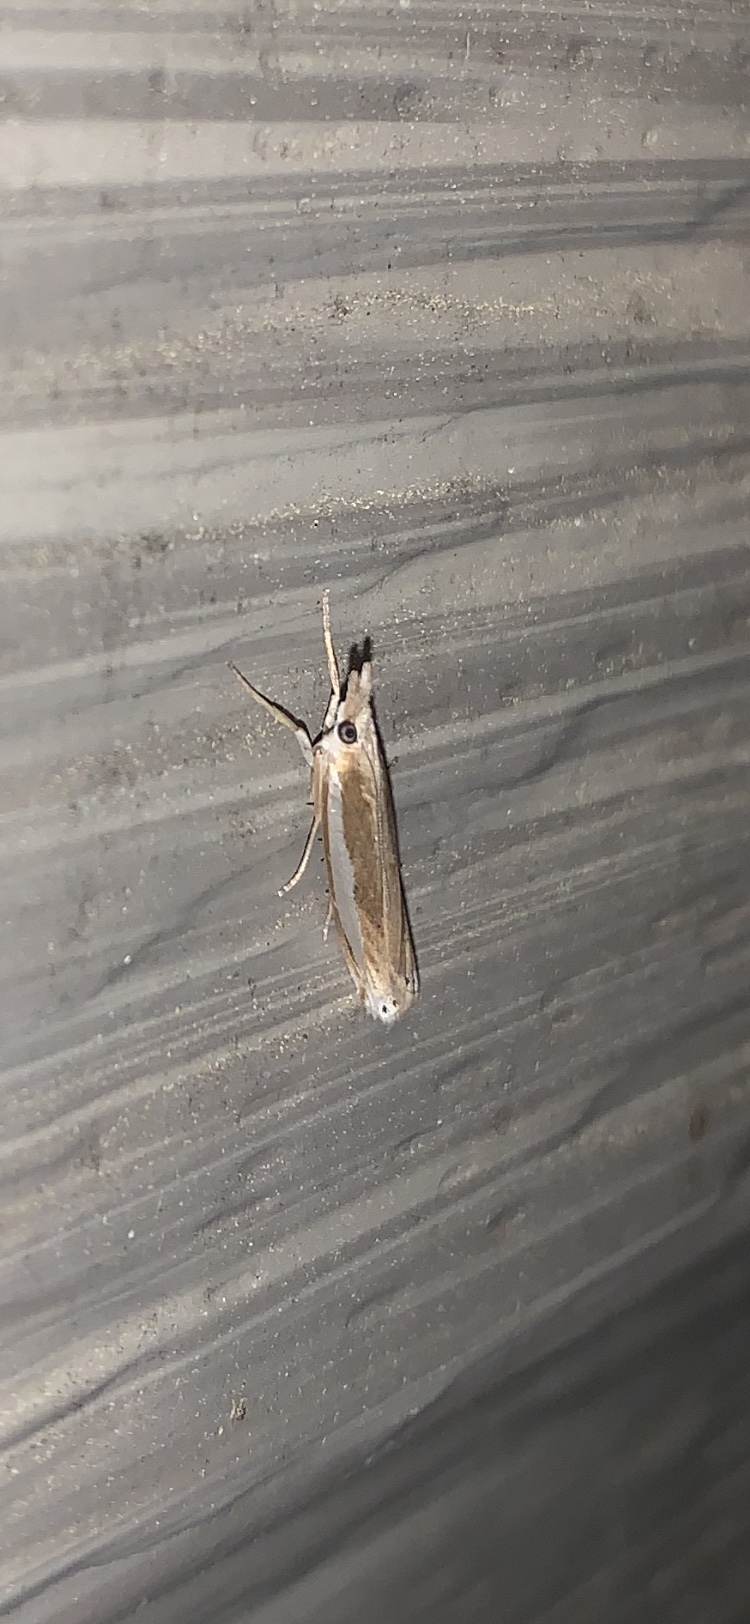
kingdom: Animalia
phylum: Arthropoda
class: Insecta
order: Lepidoptera
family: Crambidae
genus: Crambus
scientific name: Crambus praefectellus
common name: Common grass-veneer
